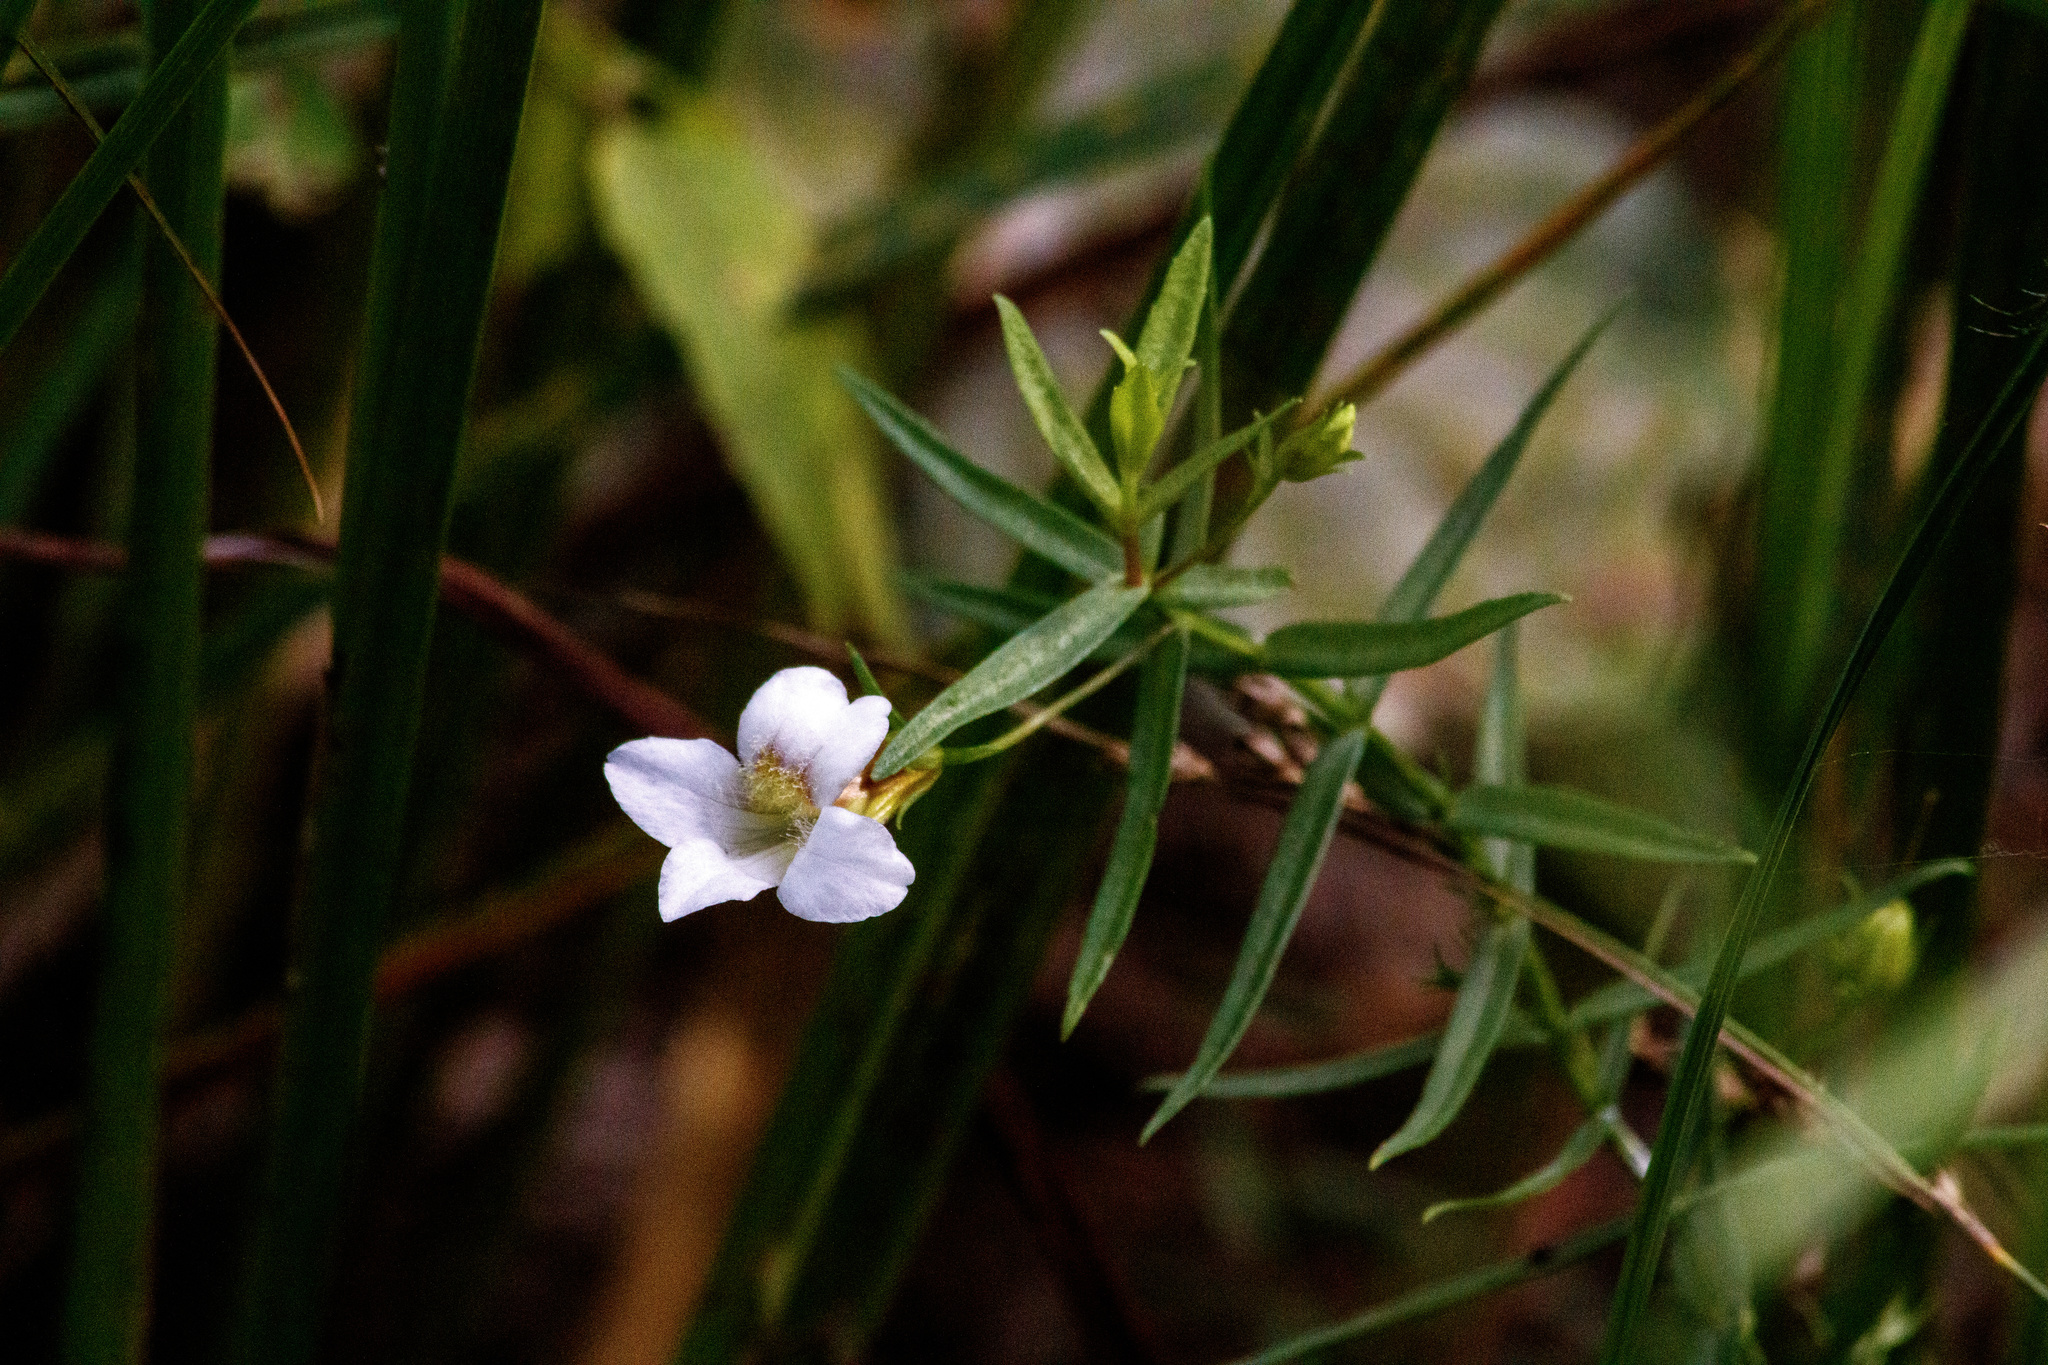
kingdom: Plantae
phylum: Tracheophyta
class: Magnoliopsida
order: Lamiales
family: Plantaginaceae
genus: Gratiola
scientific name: Gratiola officinalis
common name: Gratiola
